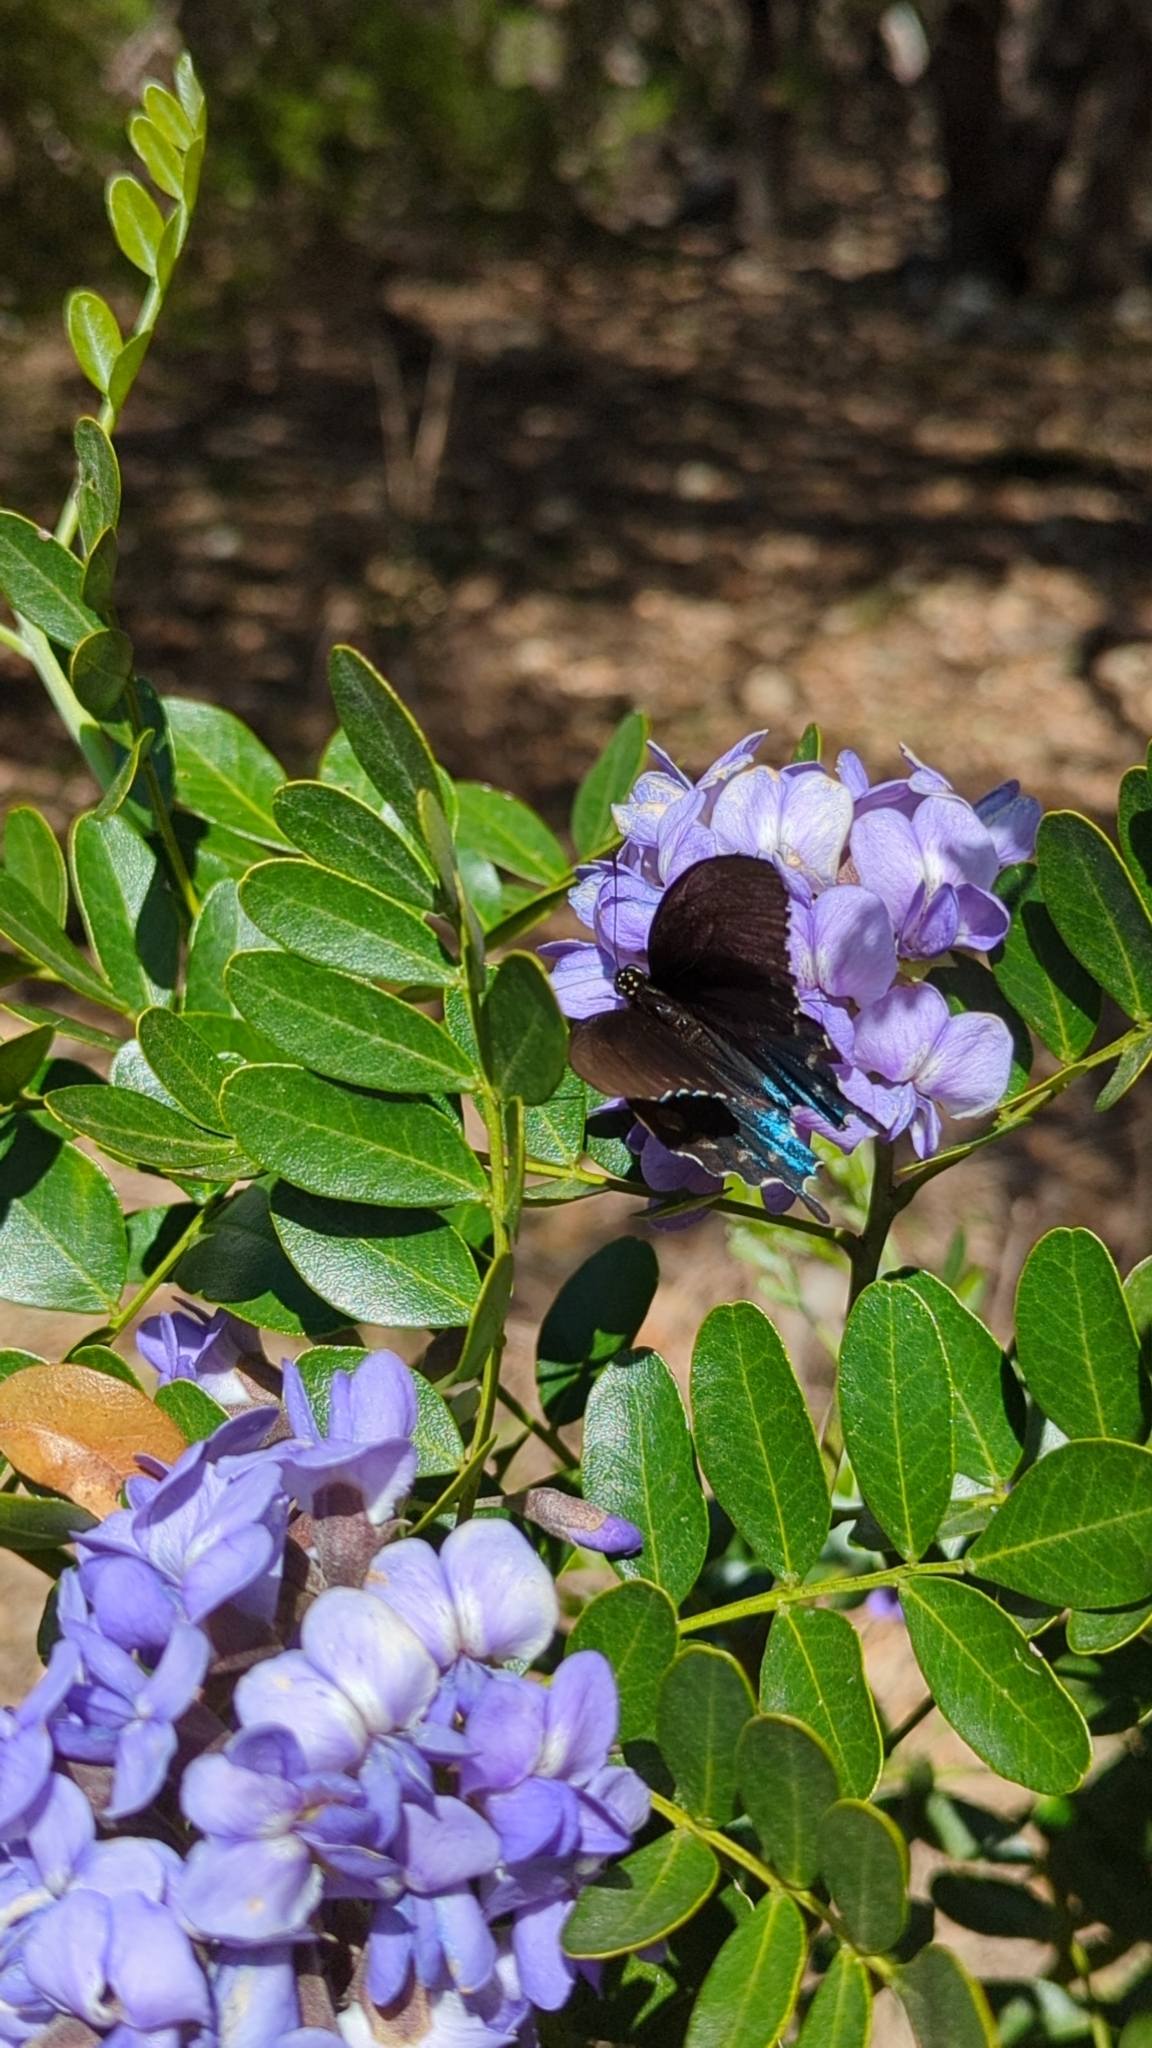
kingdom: Animalia
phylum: Arthropoda
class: Insecta
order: Lepidoptera
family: Papilionidae
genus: Battus
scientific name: Battus philenor
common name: Pipevine swallowtail
